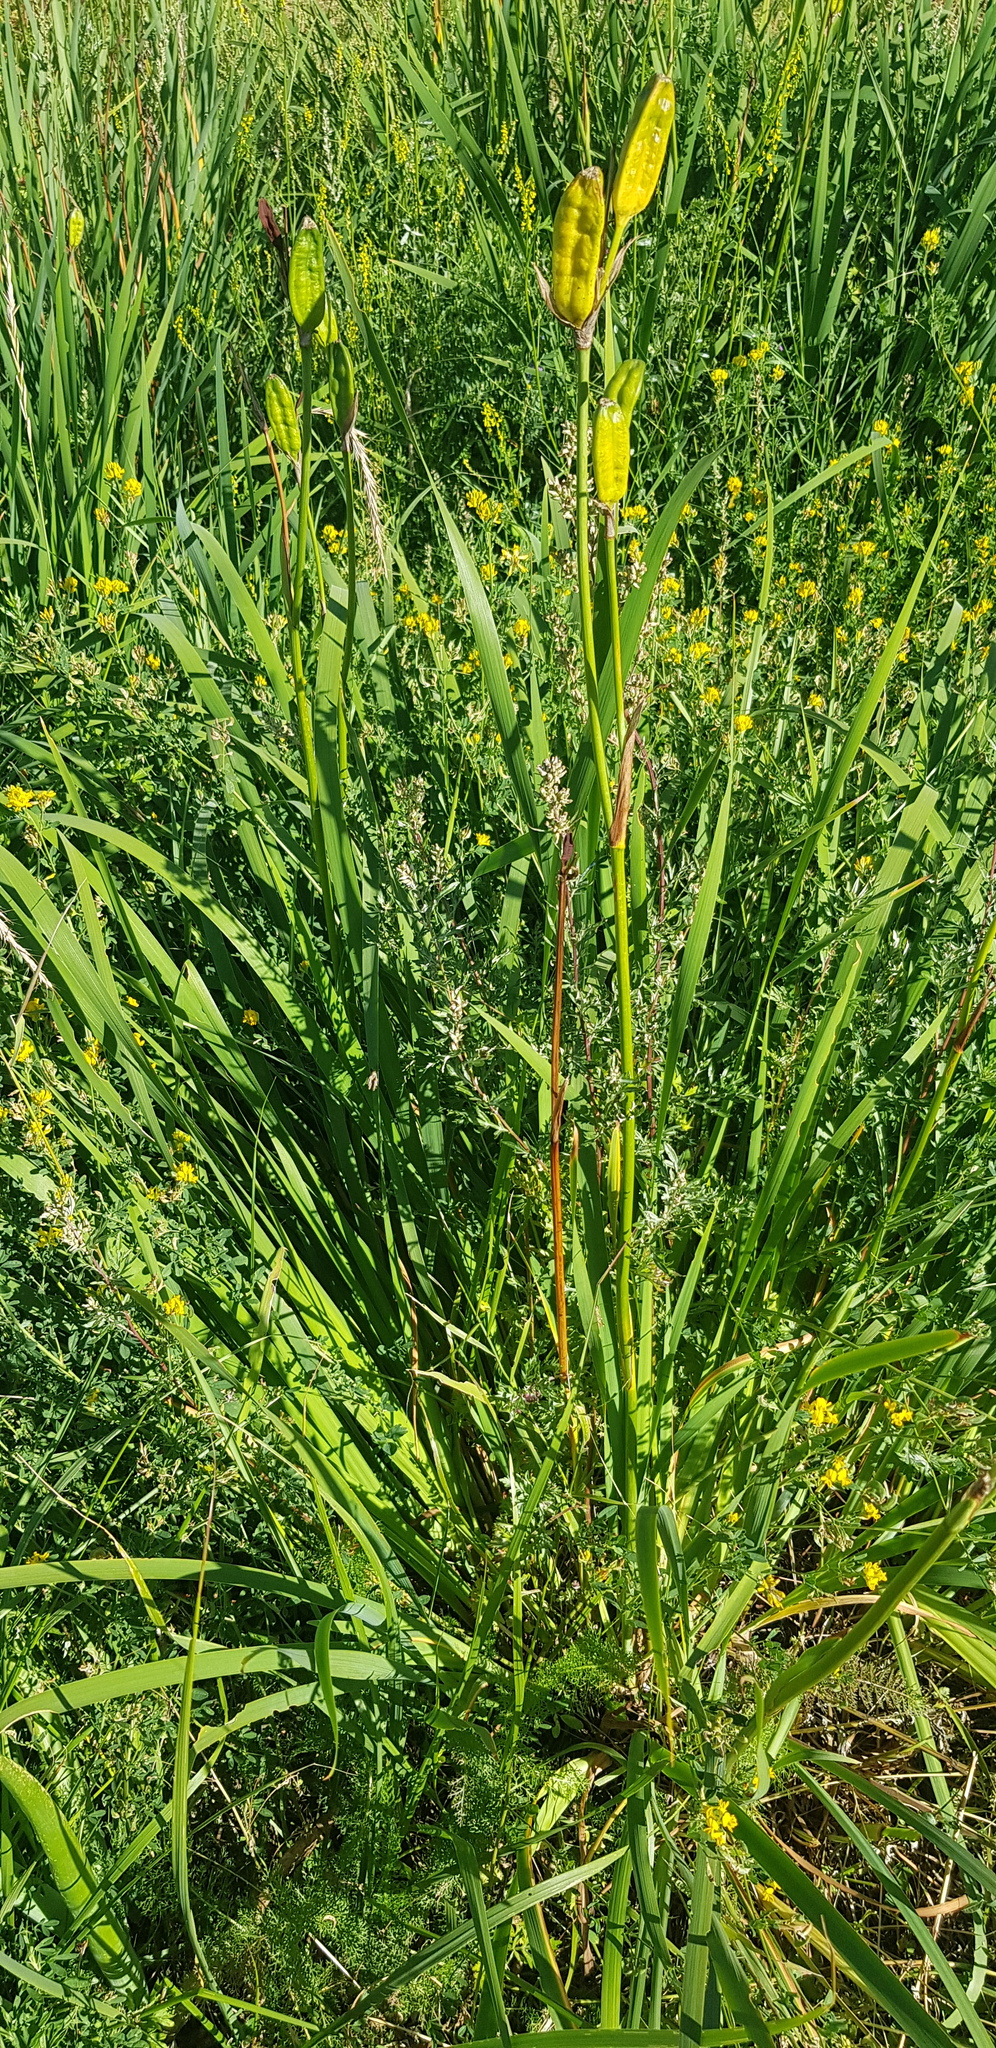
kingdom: Plantae
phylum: Tracheophyta
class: Liliopsida
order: Asparagales
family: Iridaceae
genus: Iris
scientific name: Iris sanguinea
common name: Blood iris
